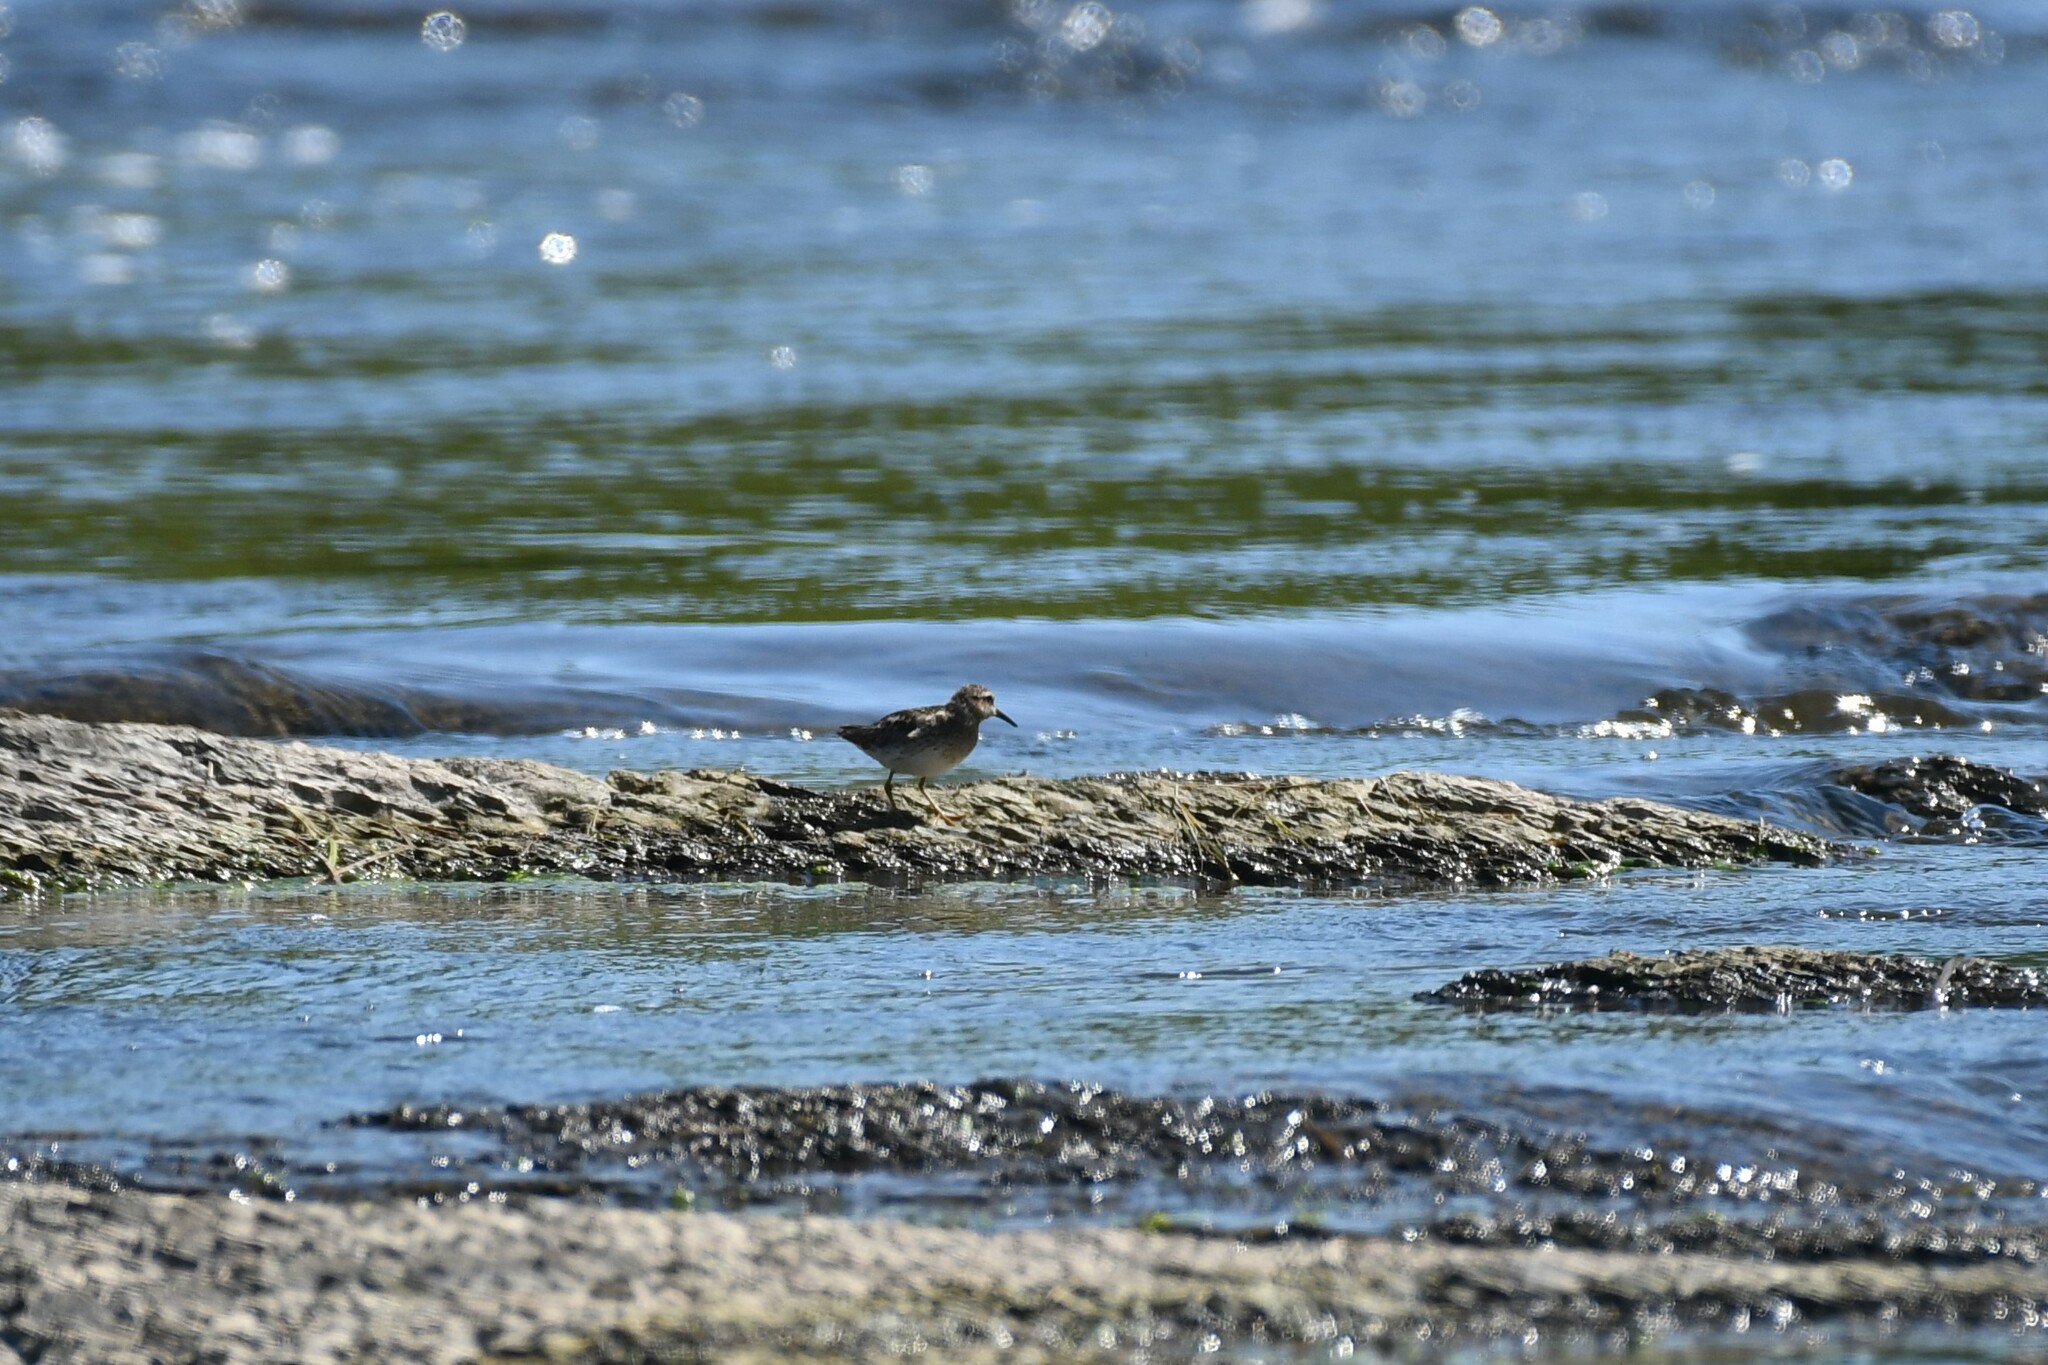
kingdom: Animalia
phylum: Chordata
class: Aves
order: Charadriiformes
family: Scolopacidae
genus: Calidris
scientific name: Calidris minutilla
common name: Least sandpiper
